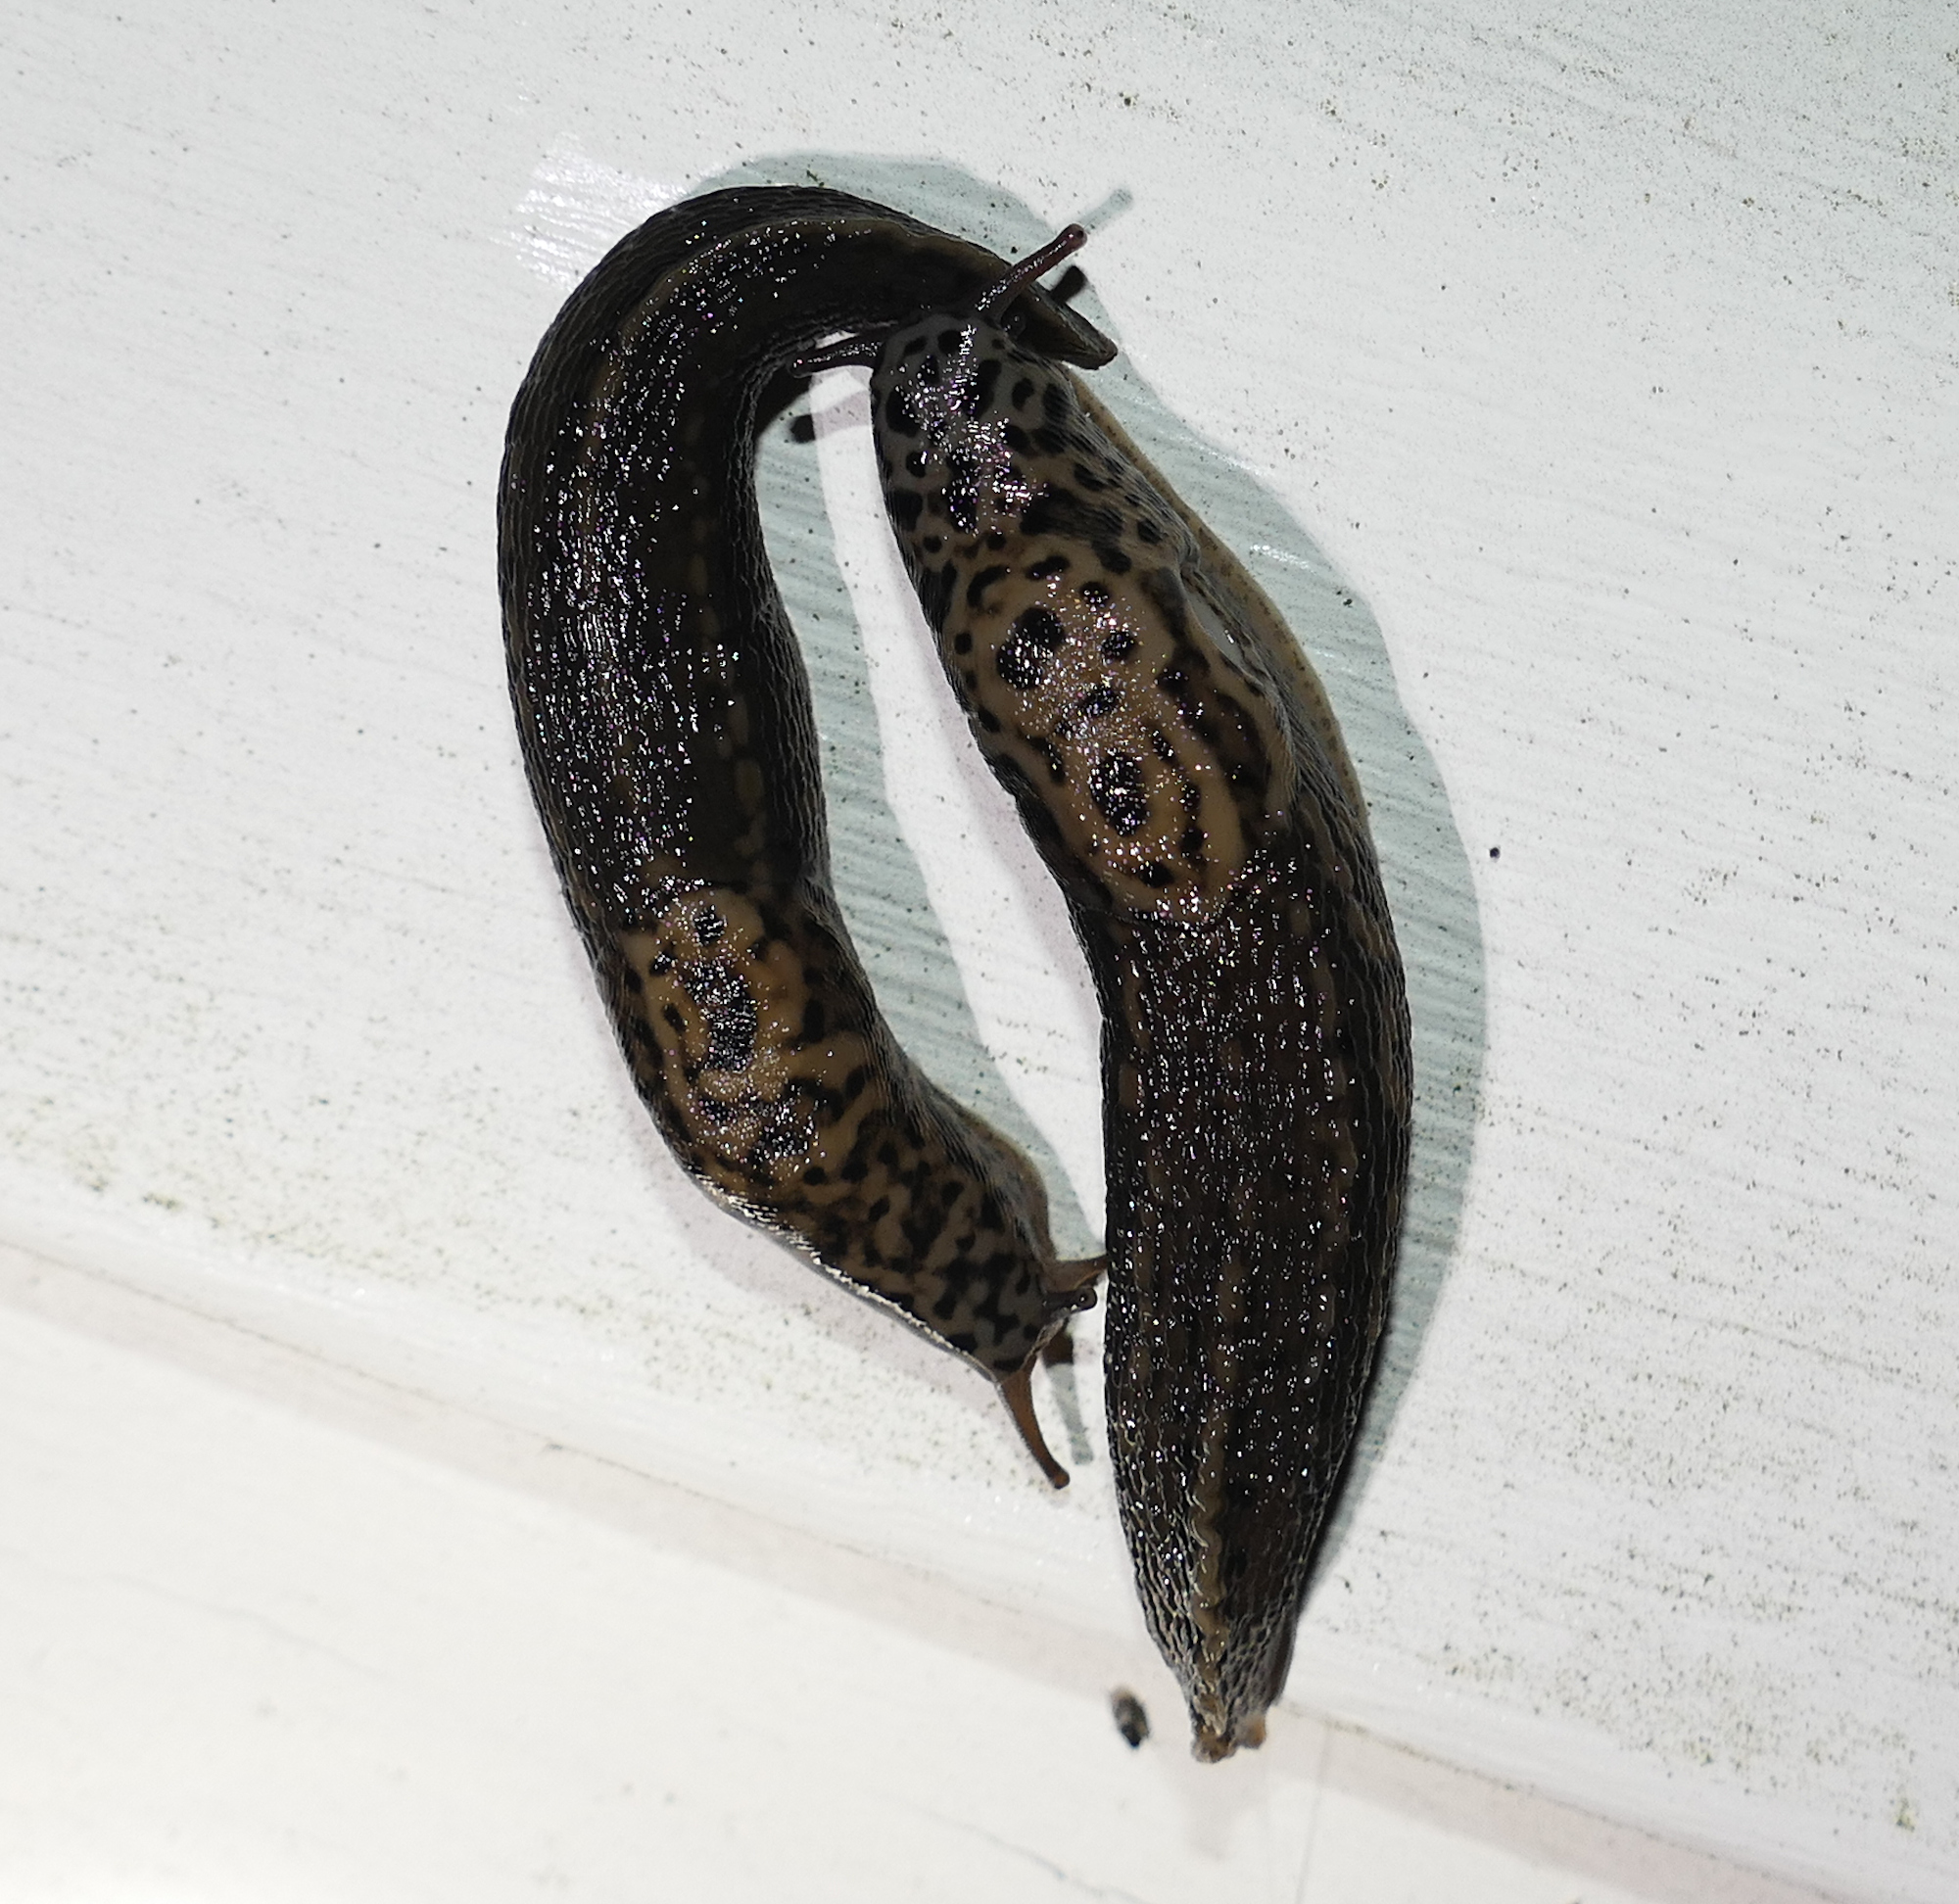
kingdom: Animalia
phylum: Mollusca
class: Gastropoda
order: Stylommatophora
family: Limacidae
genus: Limax
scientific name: Limax maximus
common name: Great grey slug
